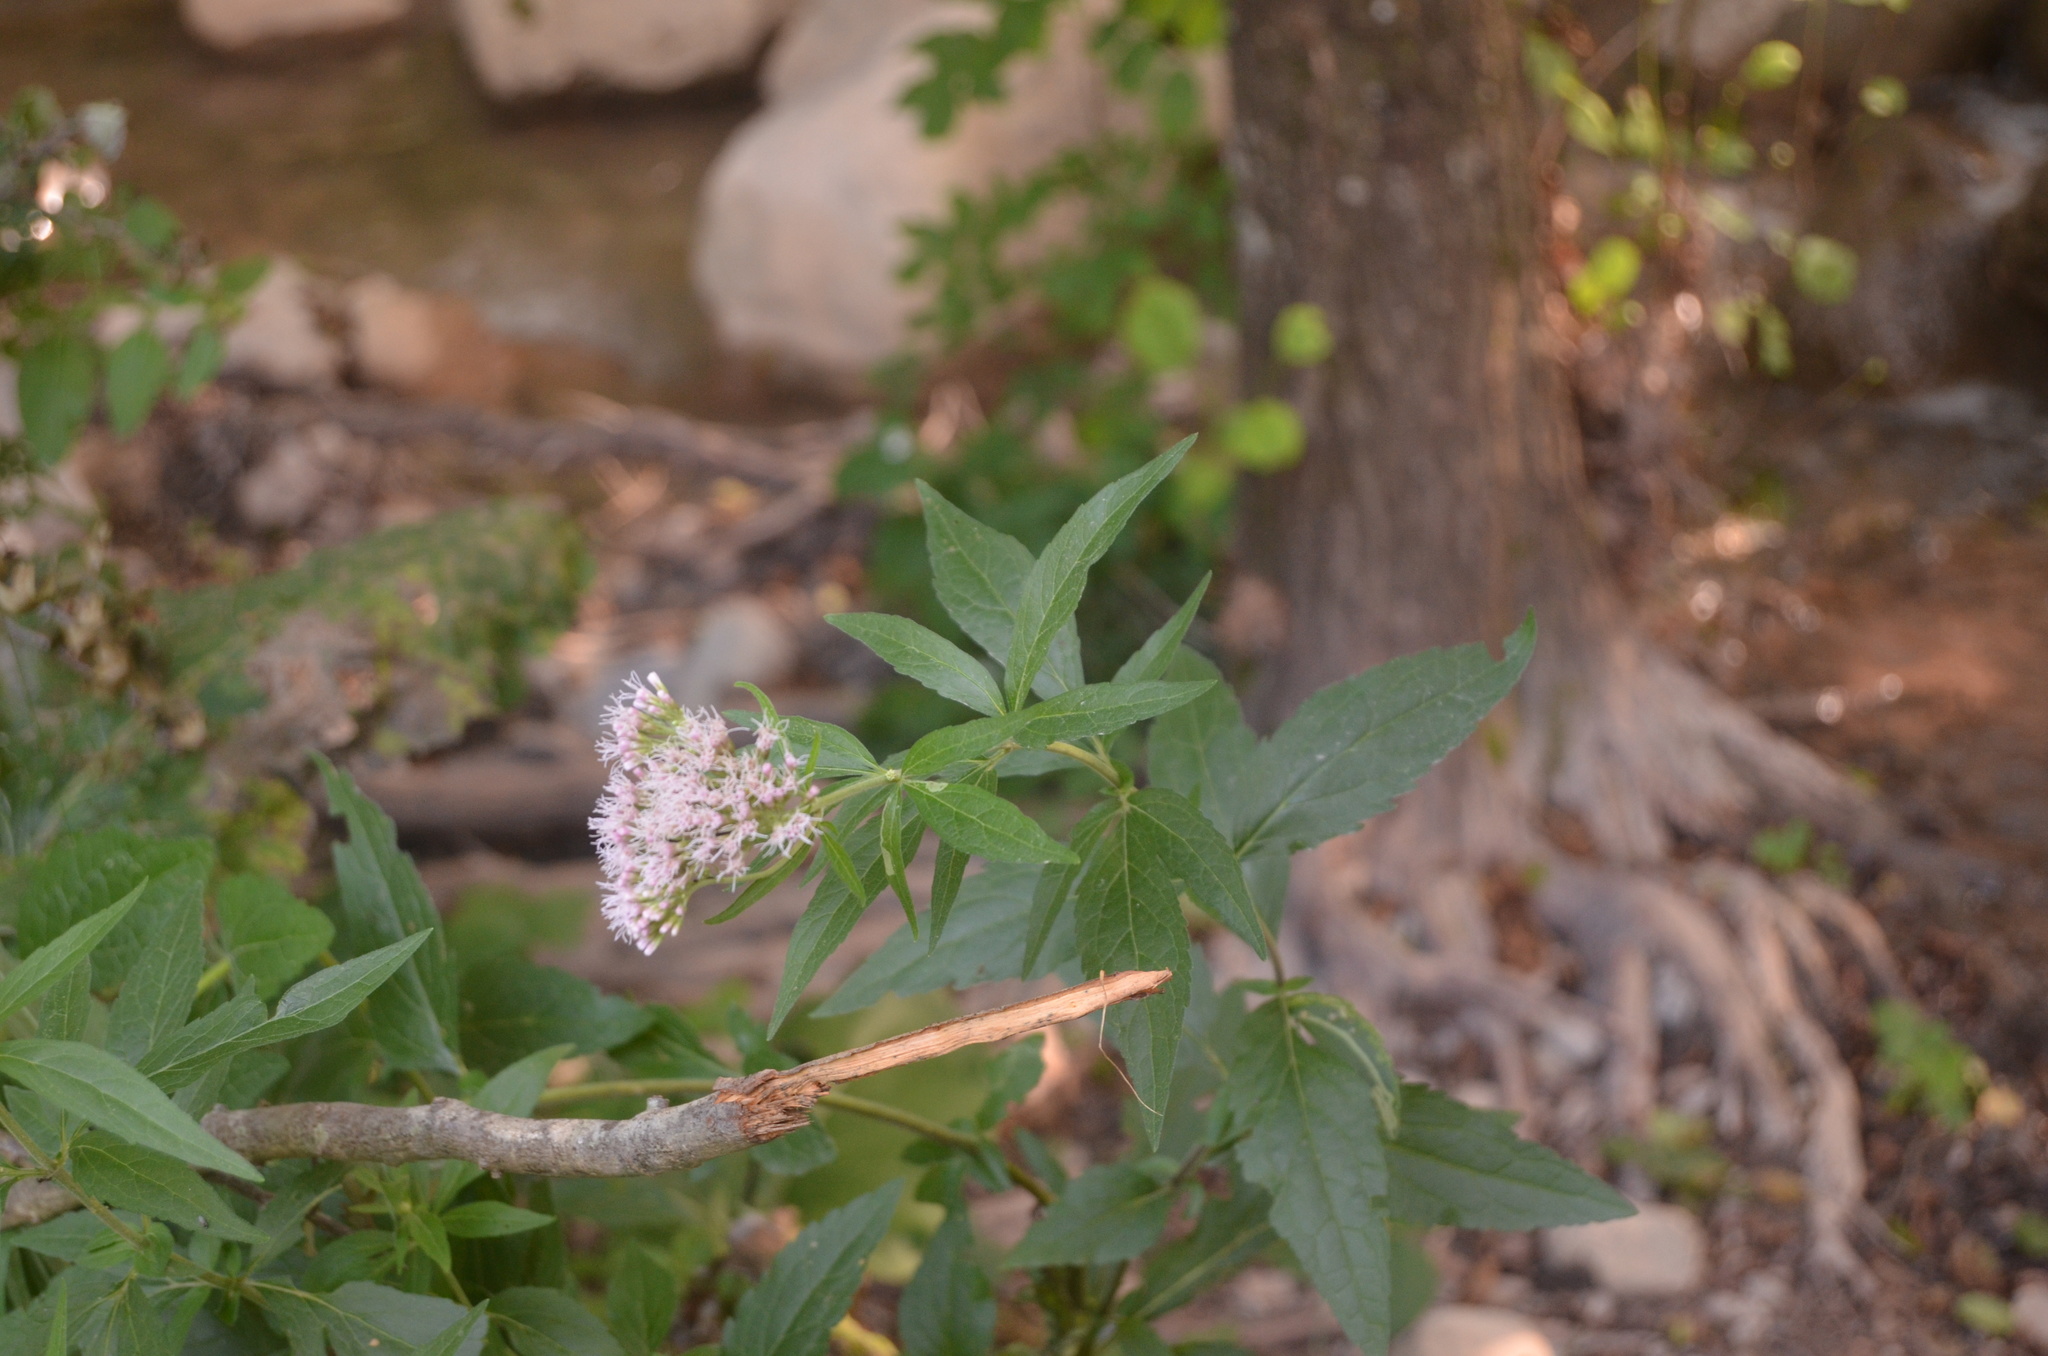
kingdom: Plantae
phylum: Tracheophyta
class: Magnoliopsida
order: Asterales
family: Asteraceae
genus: Eupatorium
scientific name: Eupatorium cannabinum
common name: Hemp-agrimony
